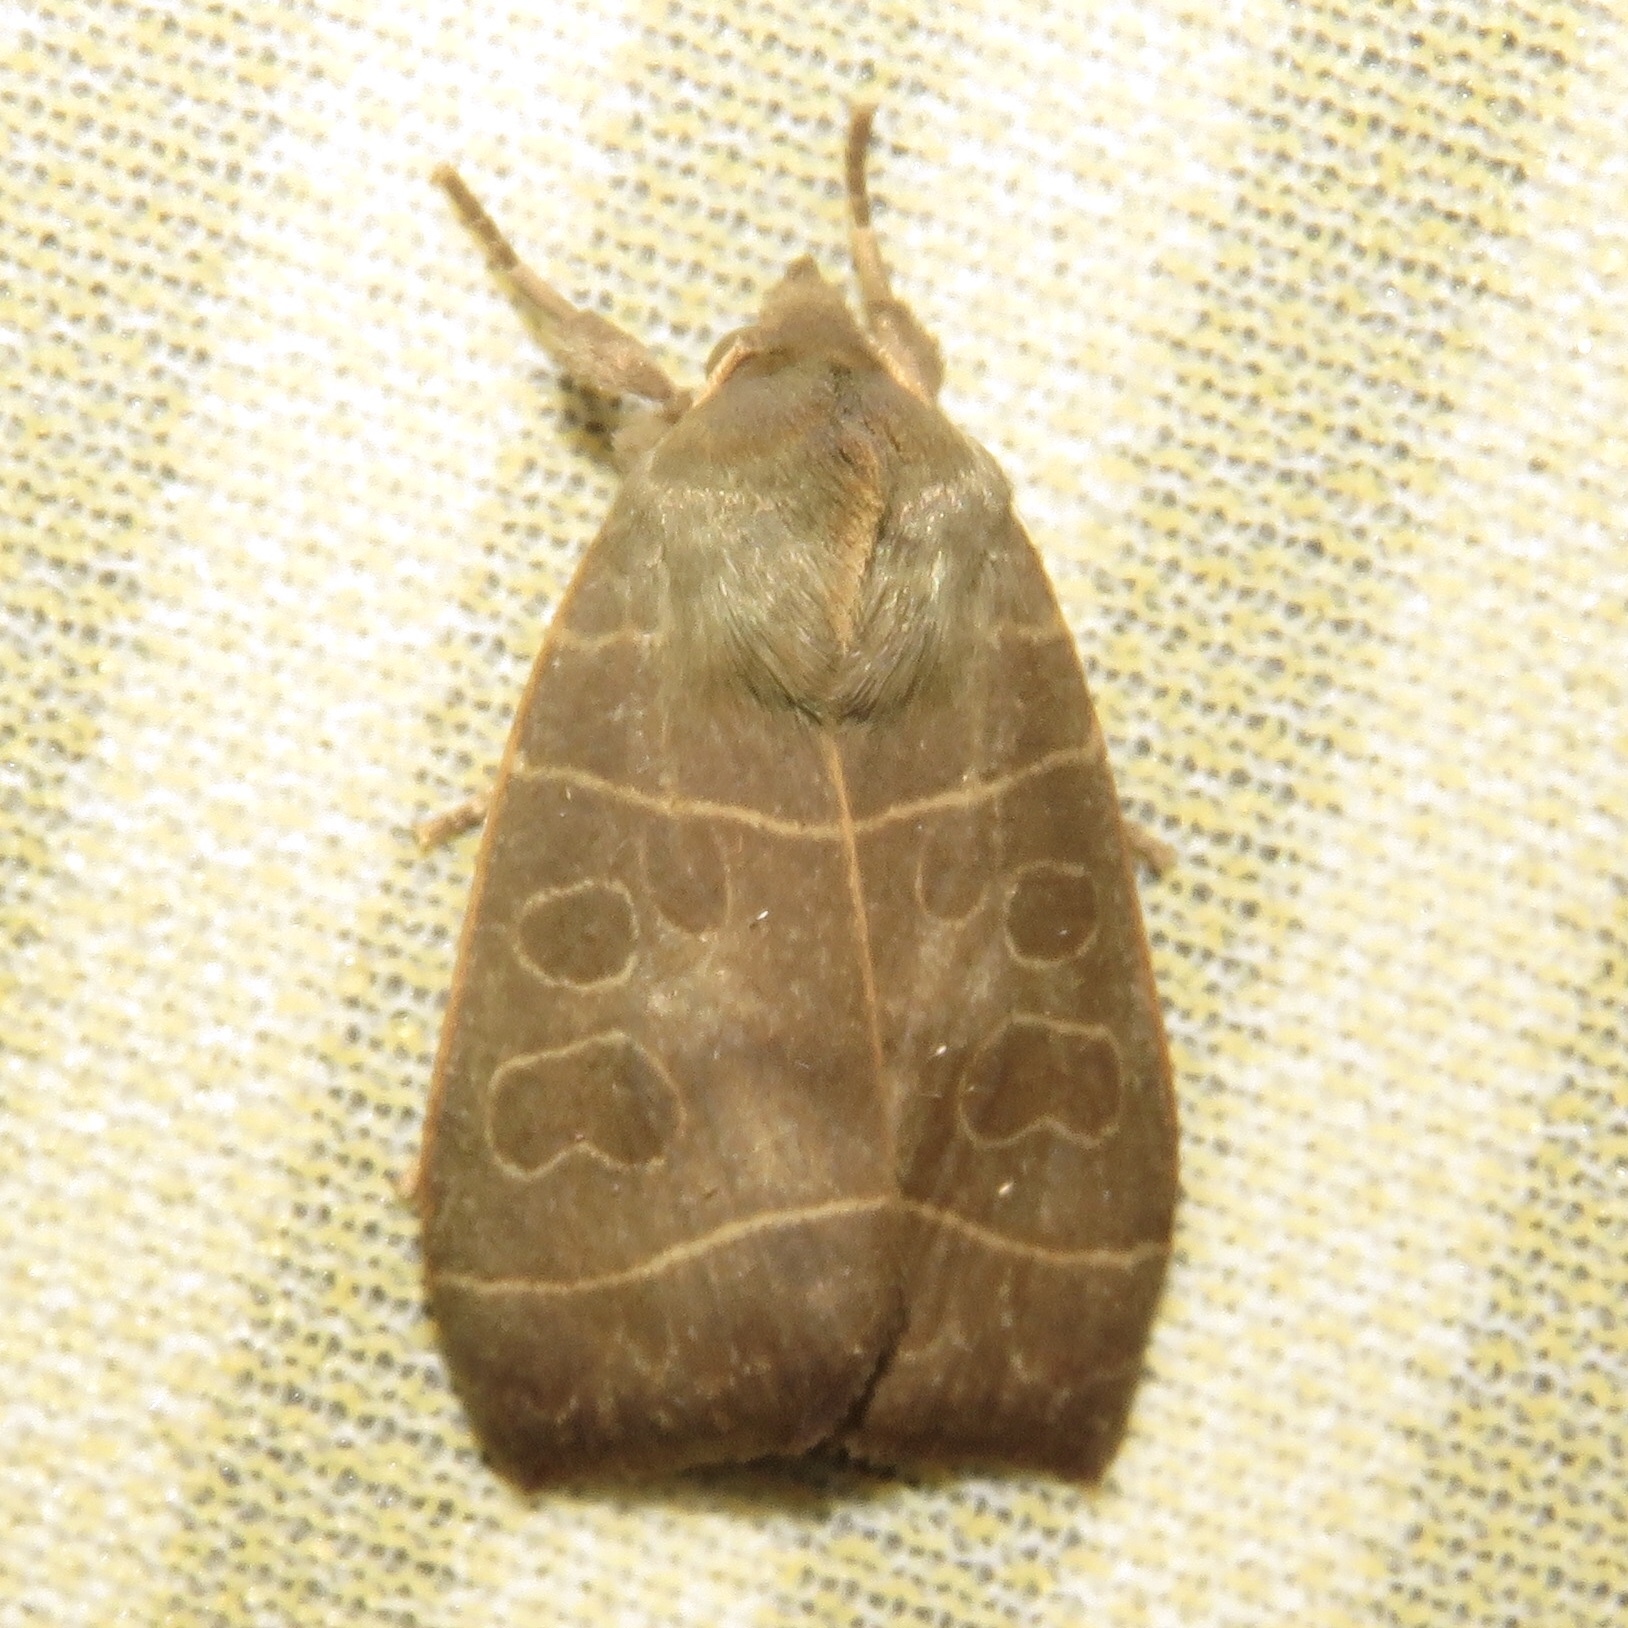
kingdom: Animalia
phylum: Arthropoda
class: Insecta
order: Lepidoptera
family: Noctuidae
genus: Ipimorpha
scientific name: Ipimorpha pleonectusa
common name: Even-lined sallow
